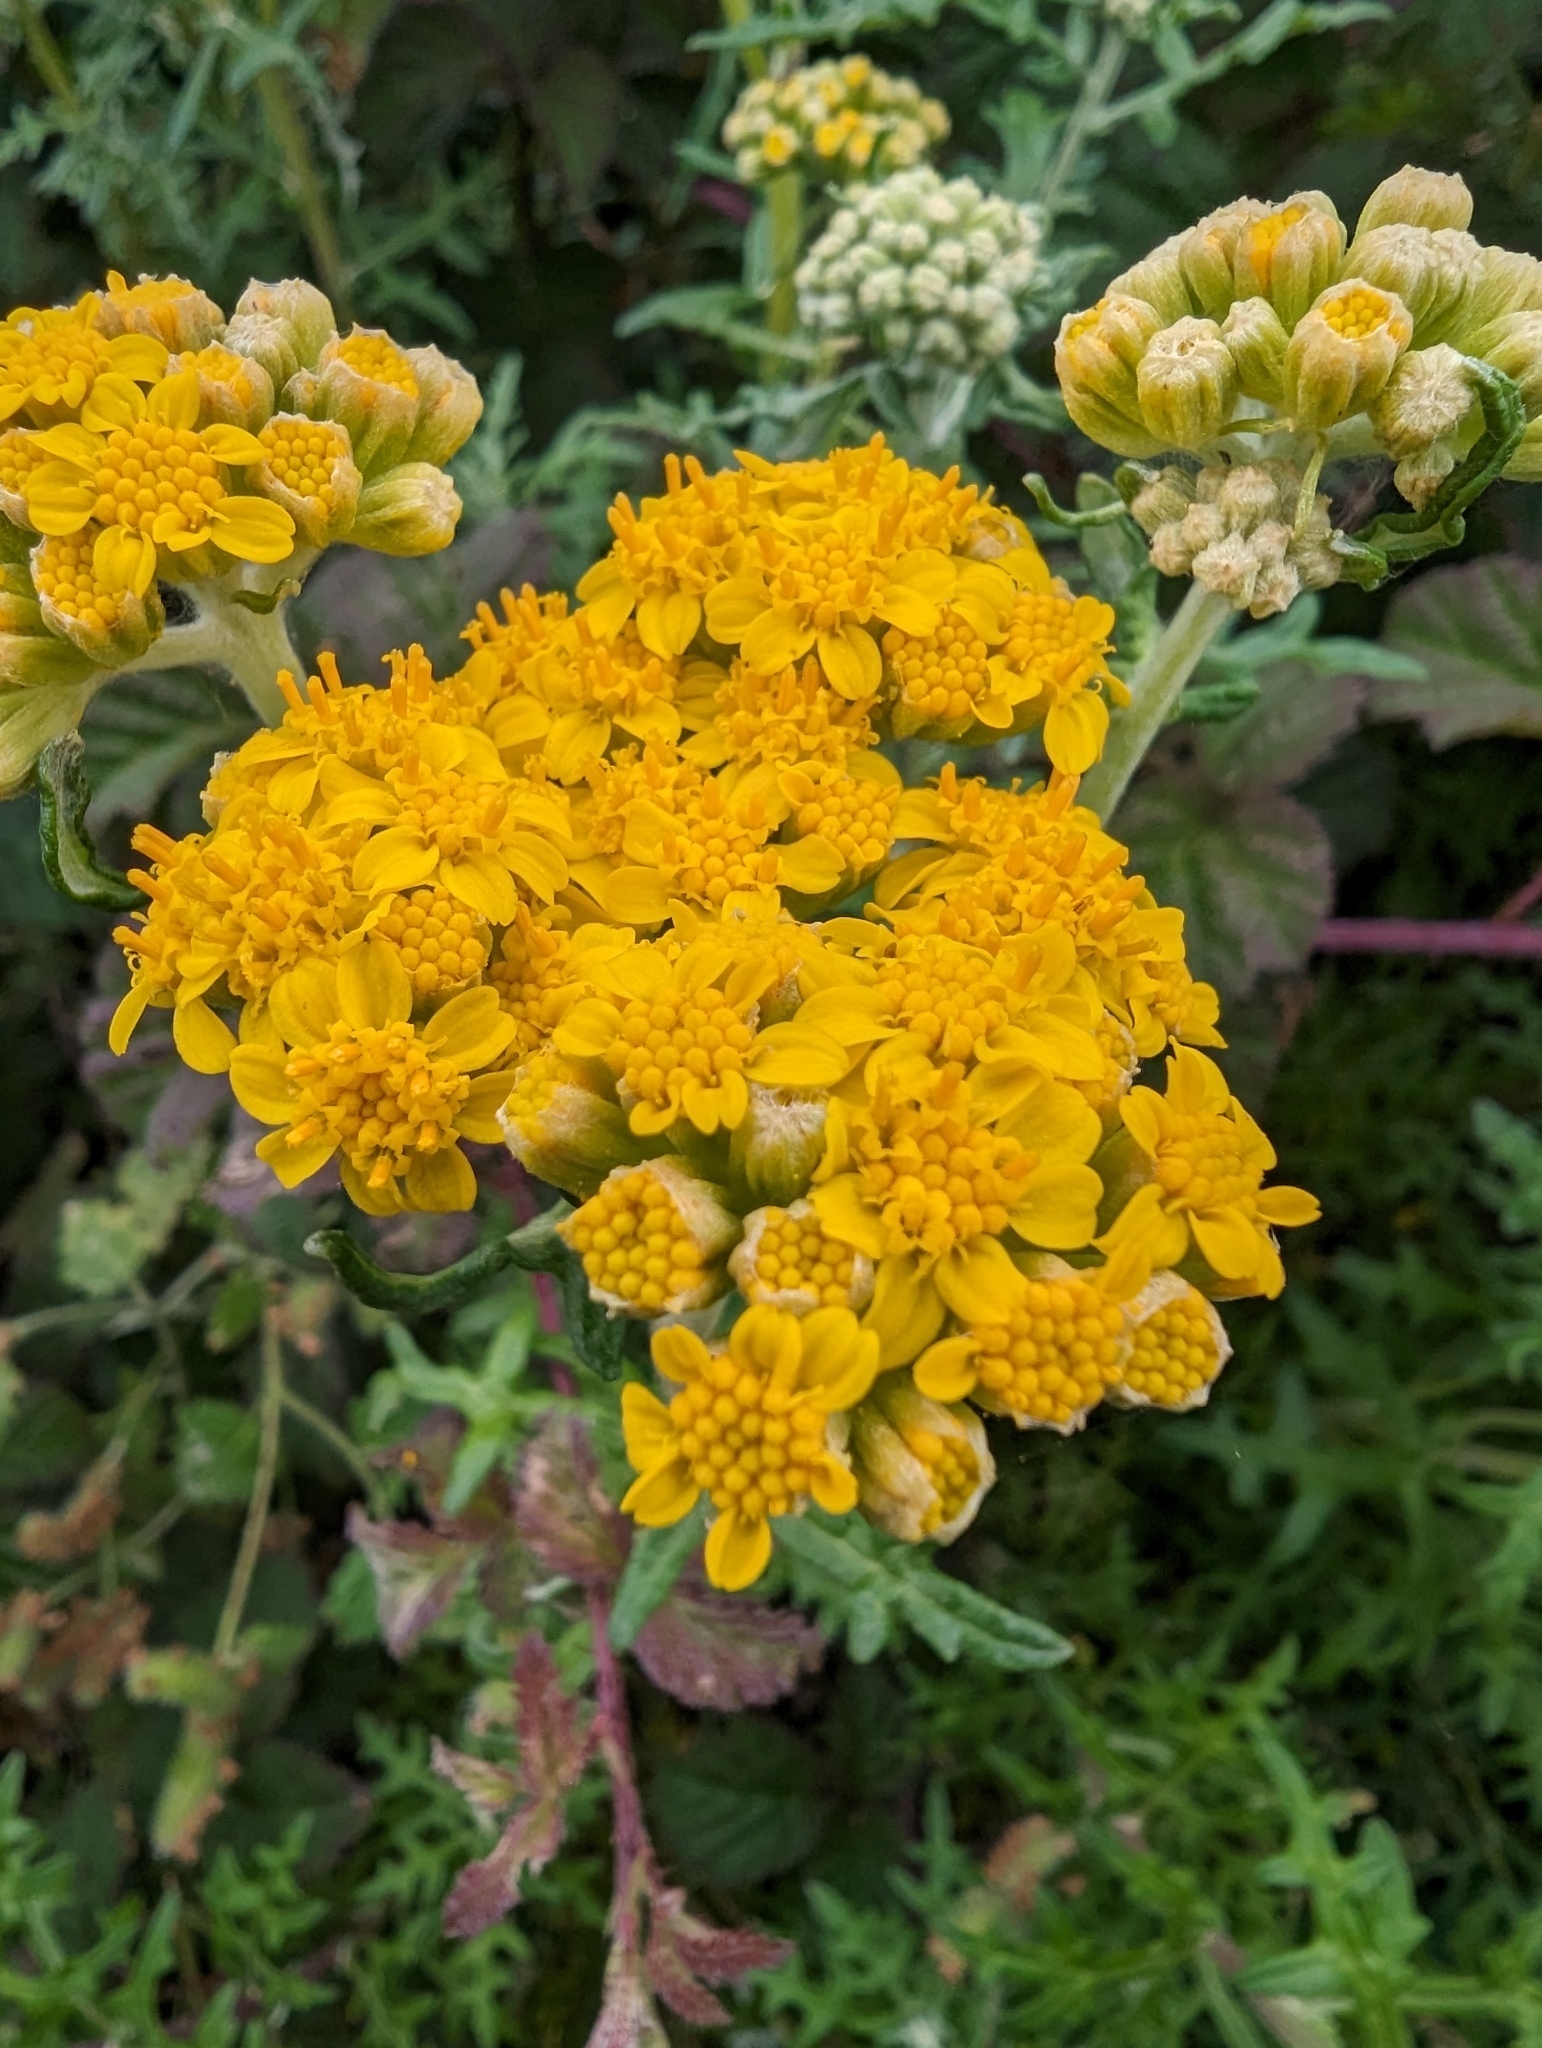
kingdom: Plantae
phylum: Tracheophyta
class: Magnoliopsida
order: Asterales
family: Asteraceae
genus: Eriophyllum
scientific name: Eriophyllum staechadifolium
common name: Lizardtail
